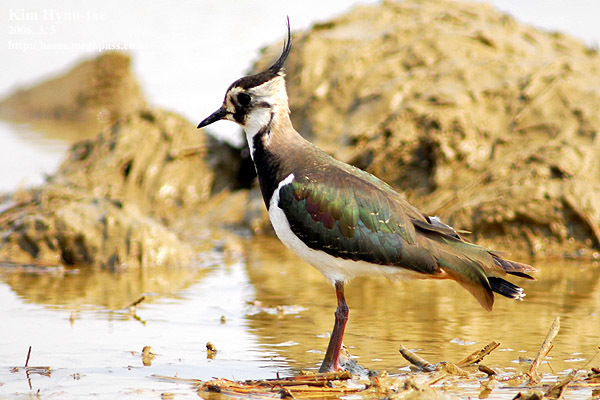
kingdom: Animalia
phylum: Chordata
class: Aves
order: Charadriiformes
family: Charadriidae
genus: Vanellus
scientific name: Vanellus vanellus
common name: Northern lapwing
